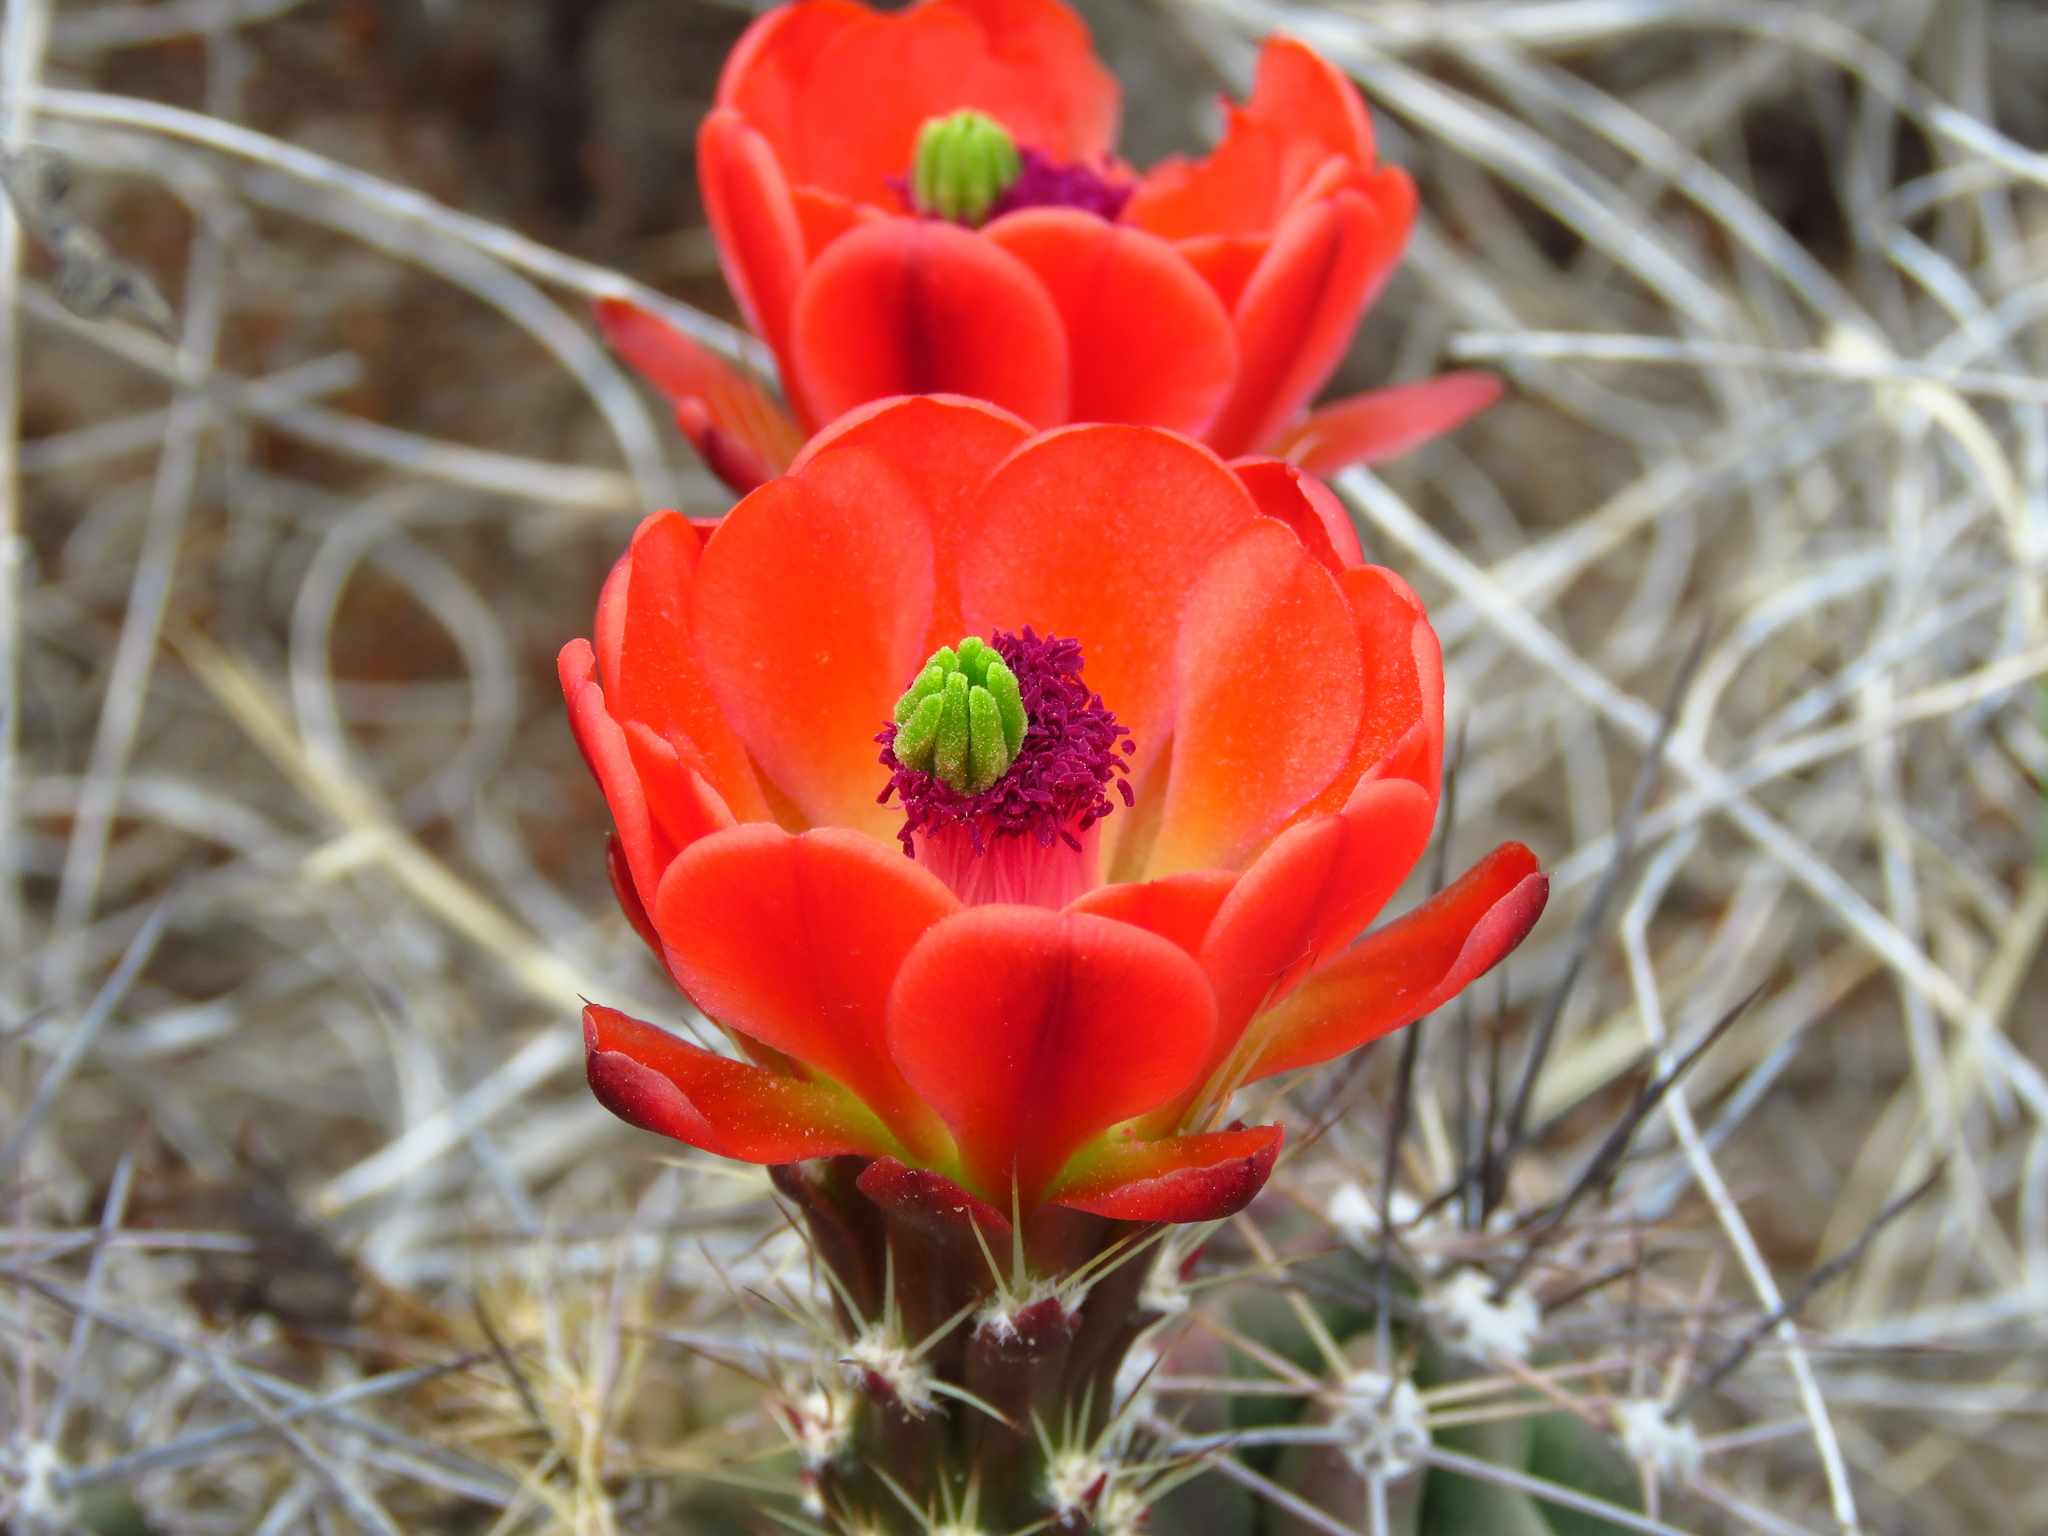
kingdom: Plantae
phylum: Tracheophyta
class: Magnoliopsida
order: Caryophyllales
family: Cactaceae
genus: Echinocereus
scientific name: Echinocereus coccineus
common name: Scarlet hedgehog cactus
